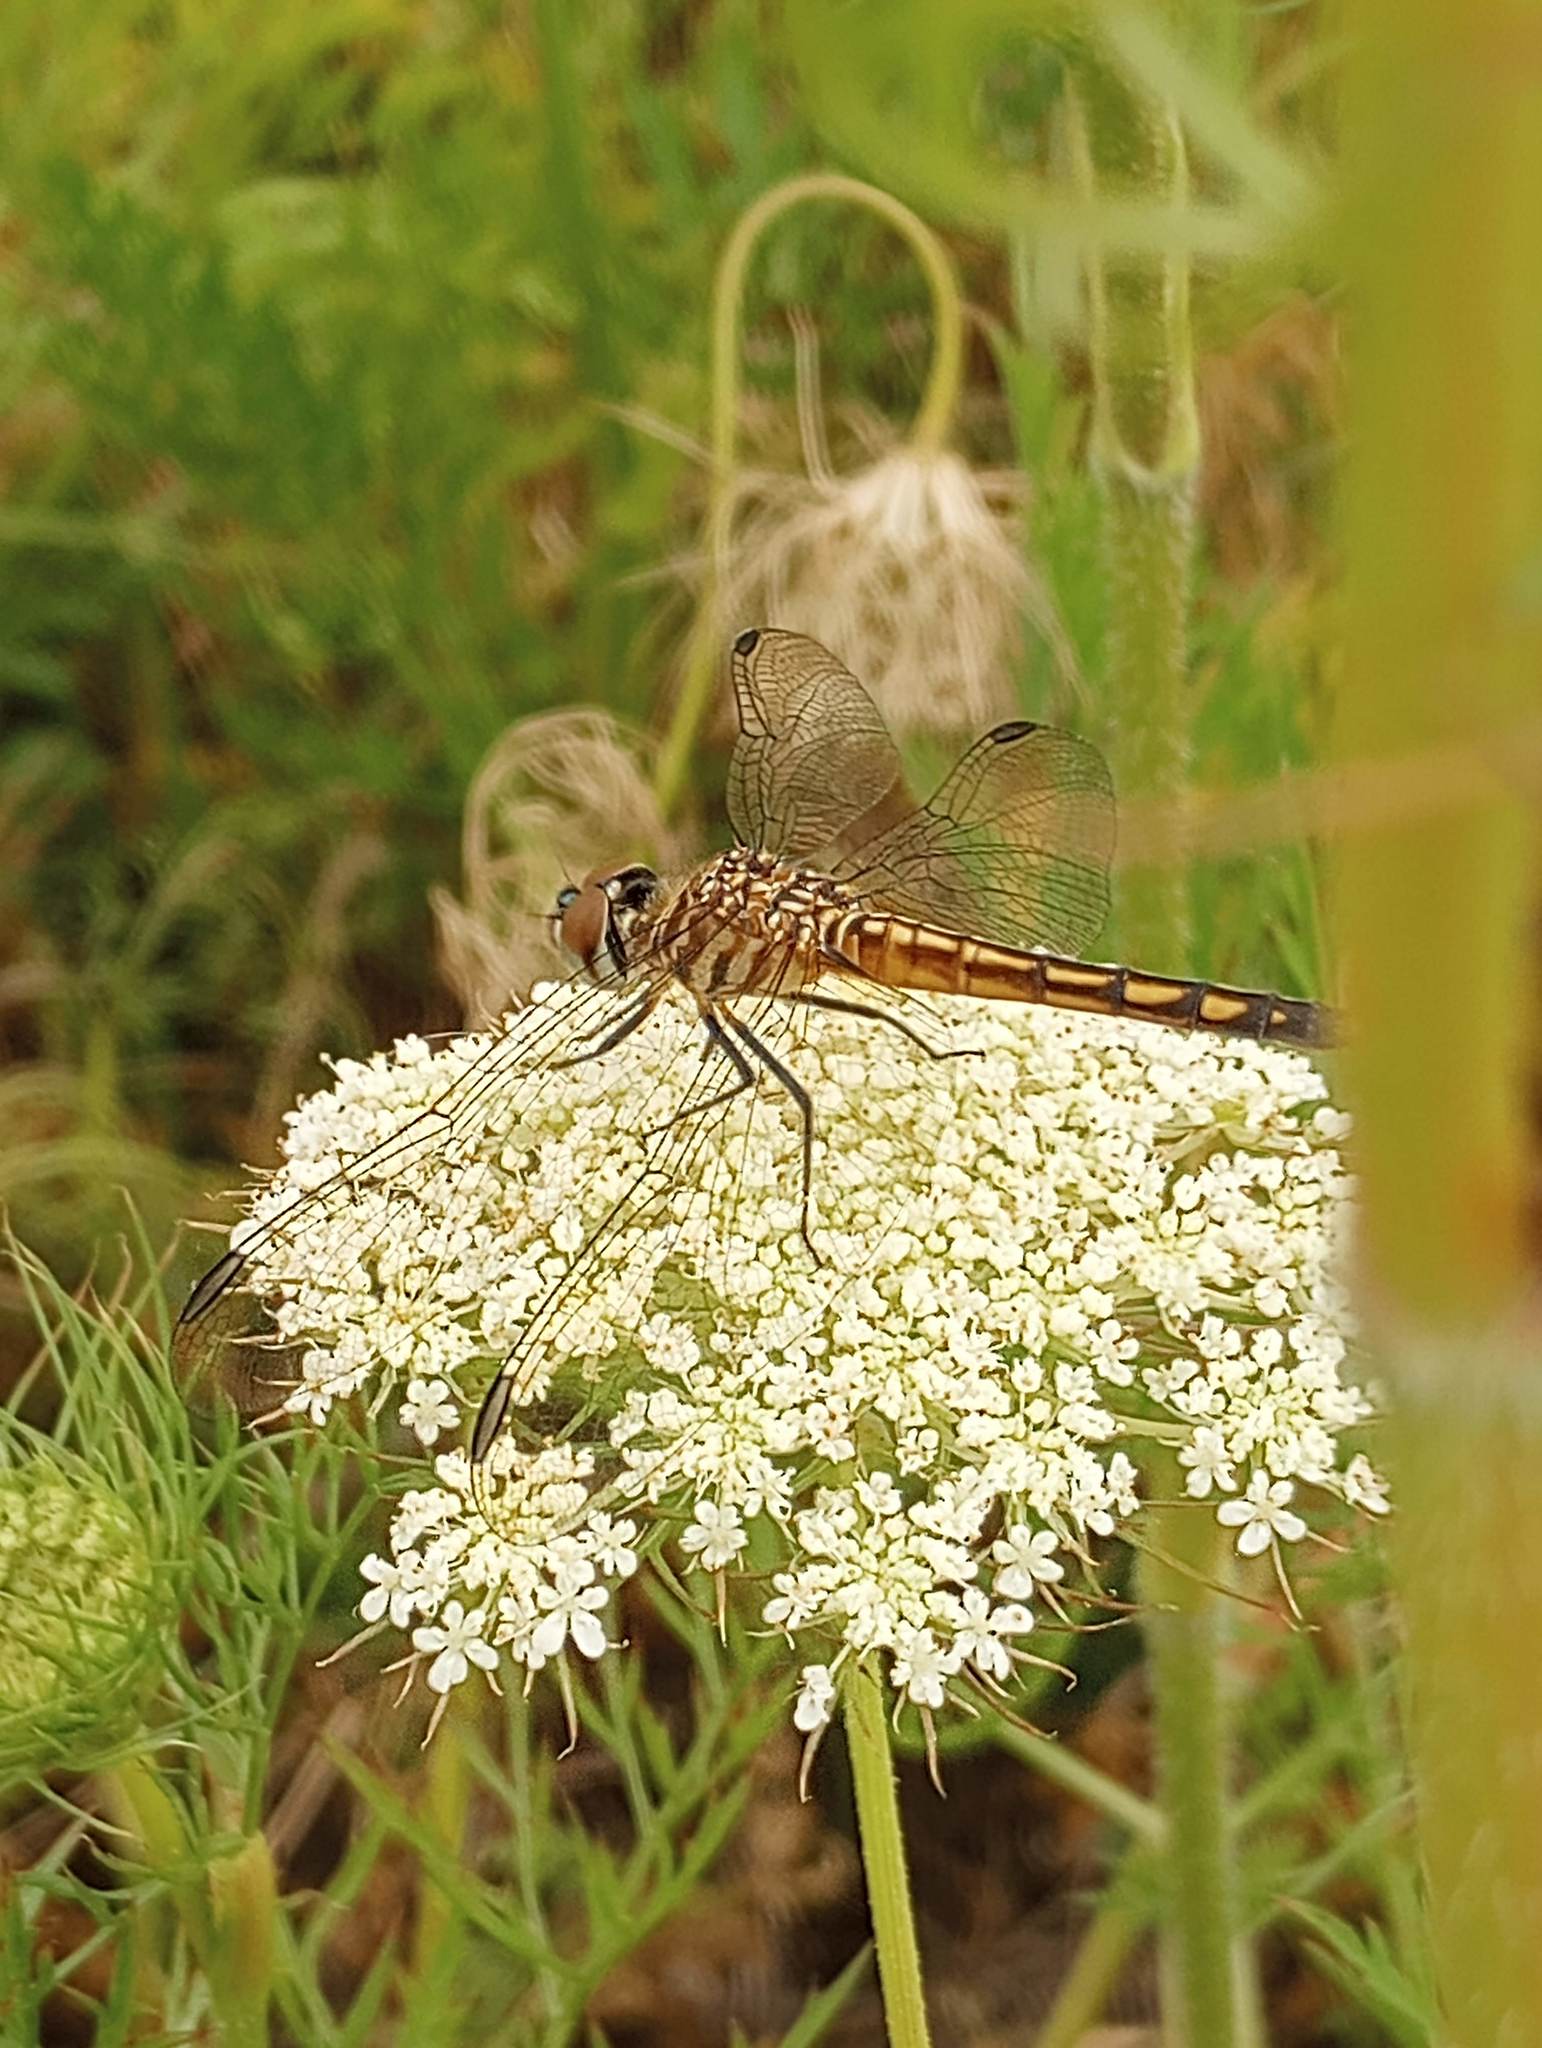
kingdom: Animalia
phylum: Arthropoda
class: Insecta
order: Odonata
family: Libellulidae
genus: Pachydiplax
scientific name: Pachydiplax longipennis
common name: Blue dasher
